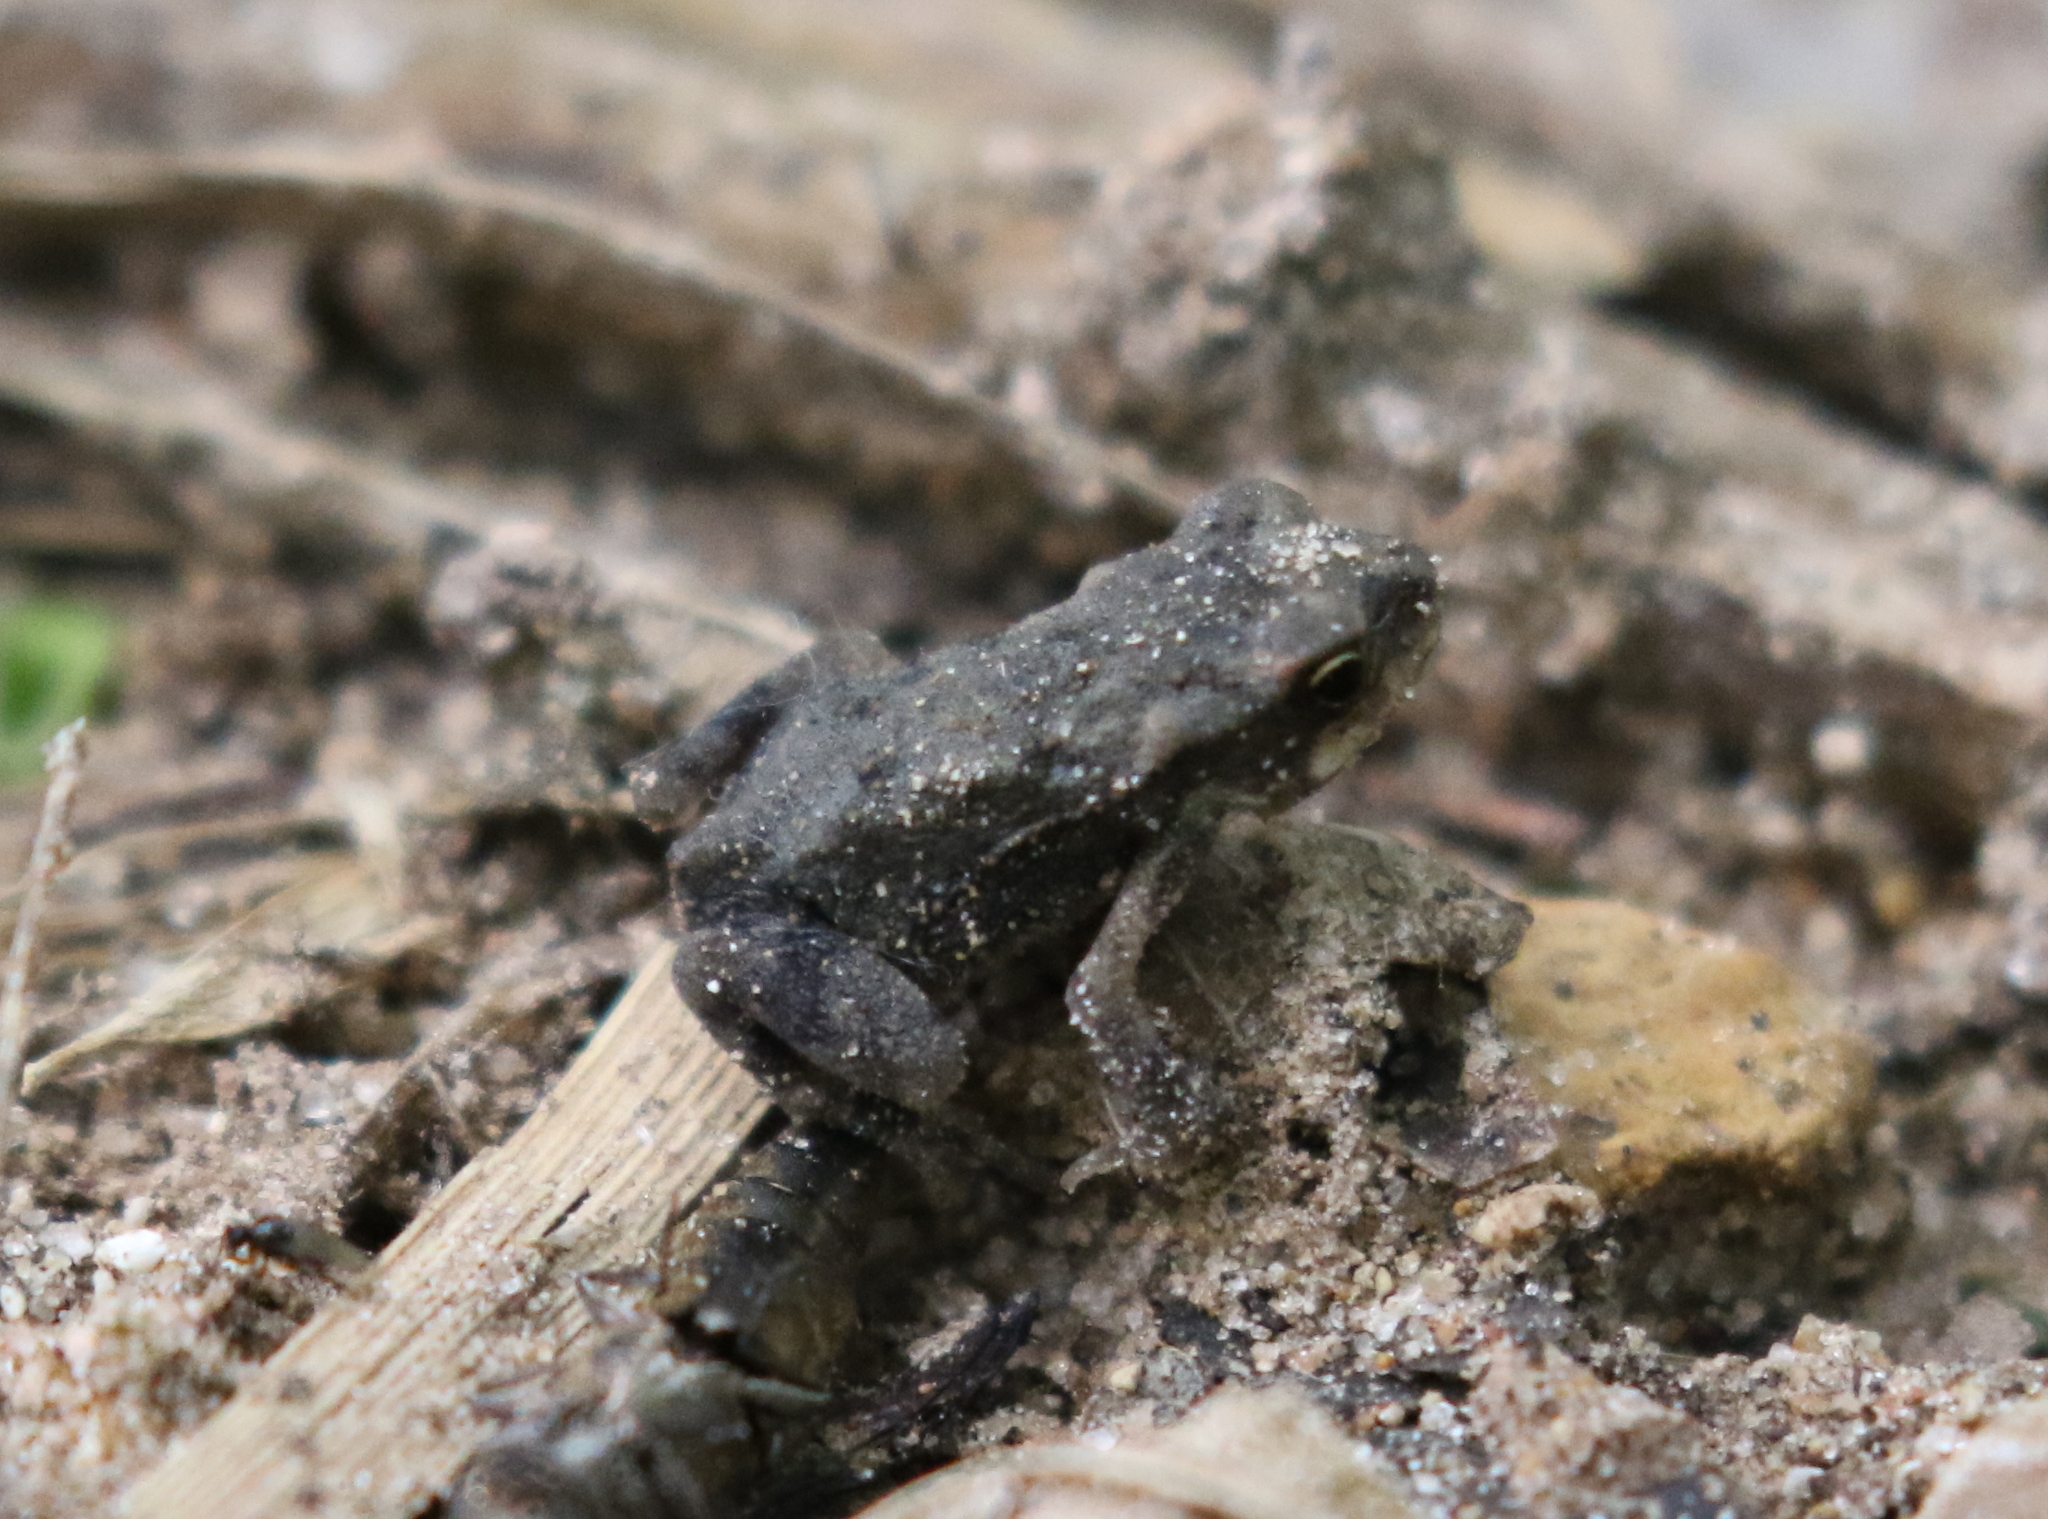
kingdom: Animalia
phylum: Chordata
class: Amphibia
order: Anura
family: Bufonidae
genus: Incilius
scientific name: Incilius nebulifer
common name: Gulf coast toad
